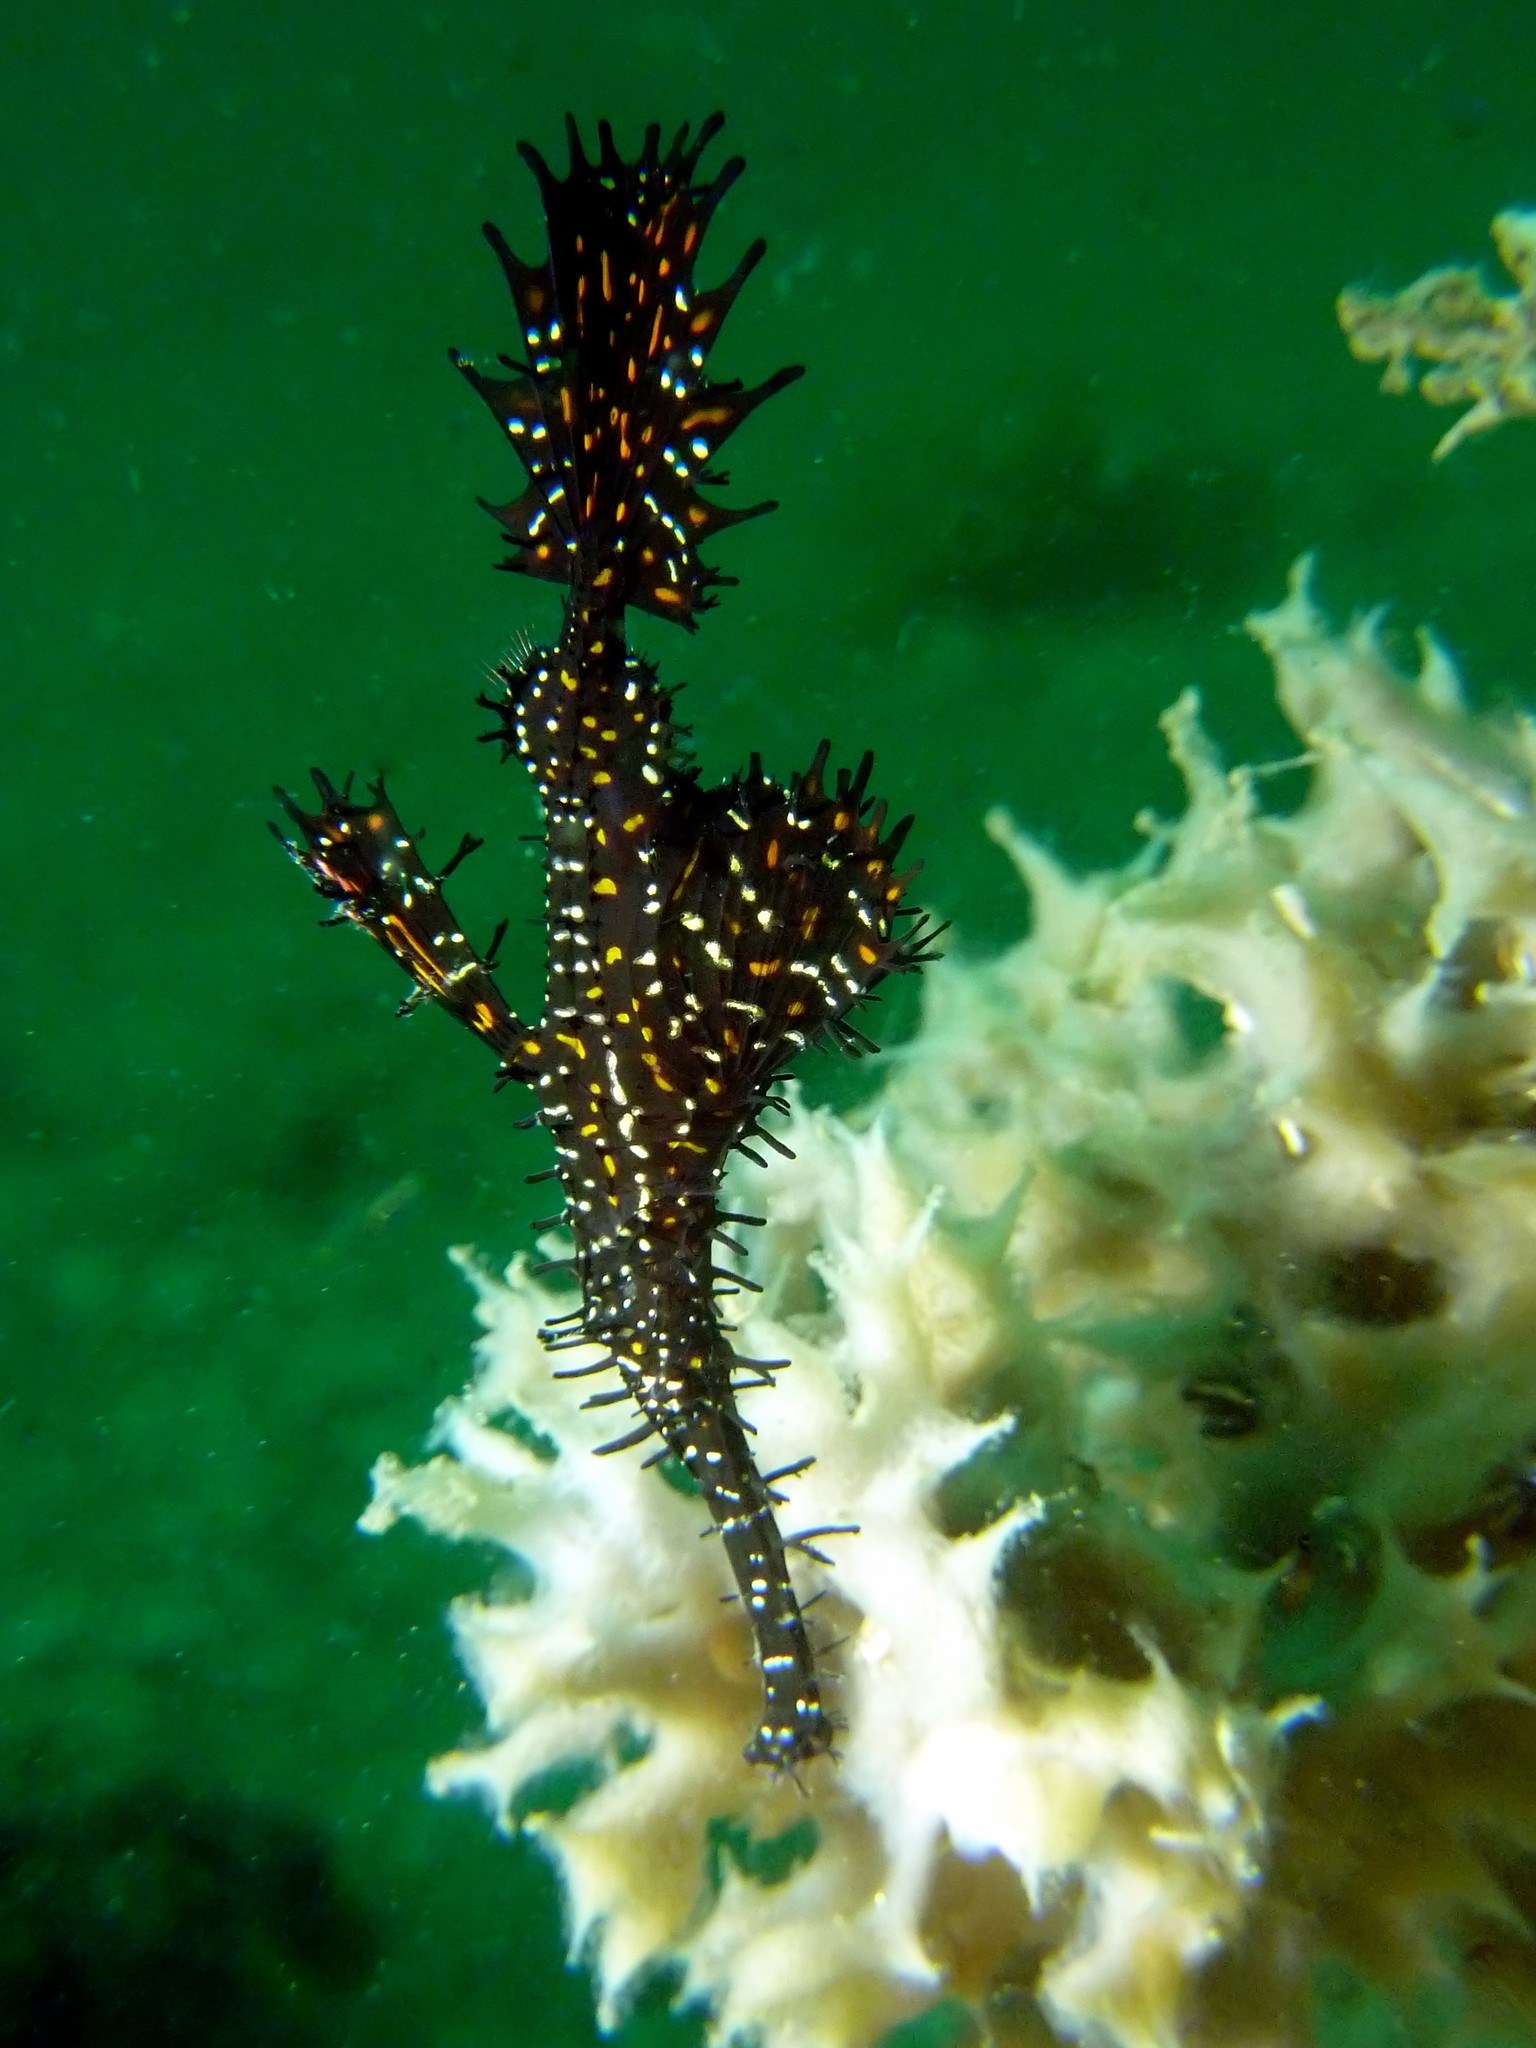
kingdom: Animalia
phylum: Chordata
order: Syngnathiformes
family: Solenostomidae
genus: Solenostomus
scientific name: Solenostomus paradoxus
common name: Ghost pipefish
